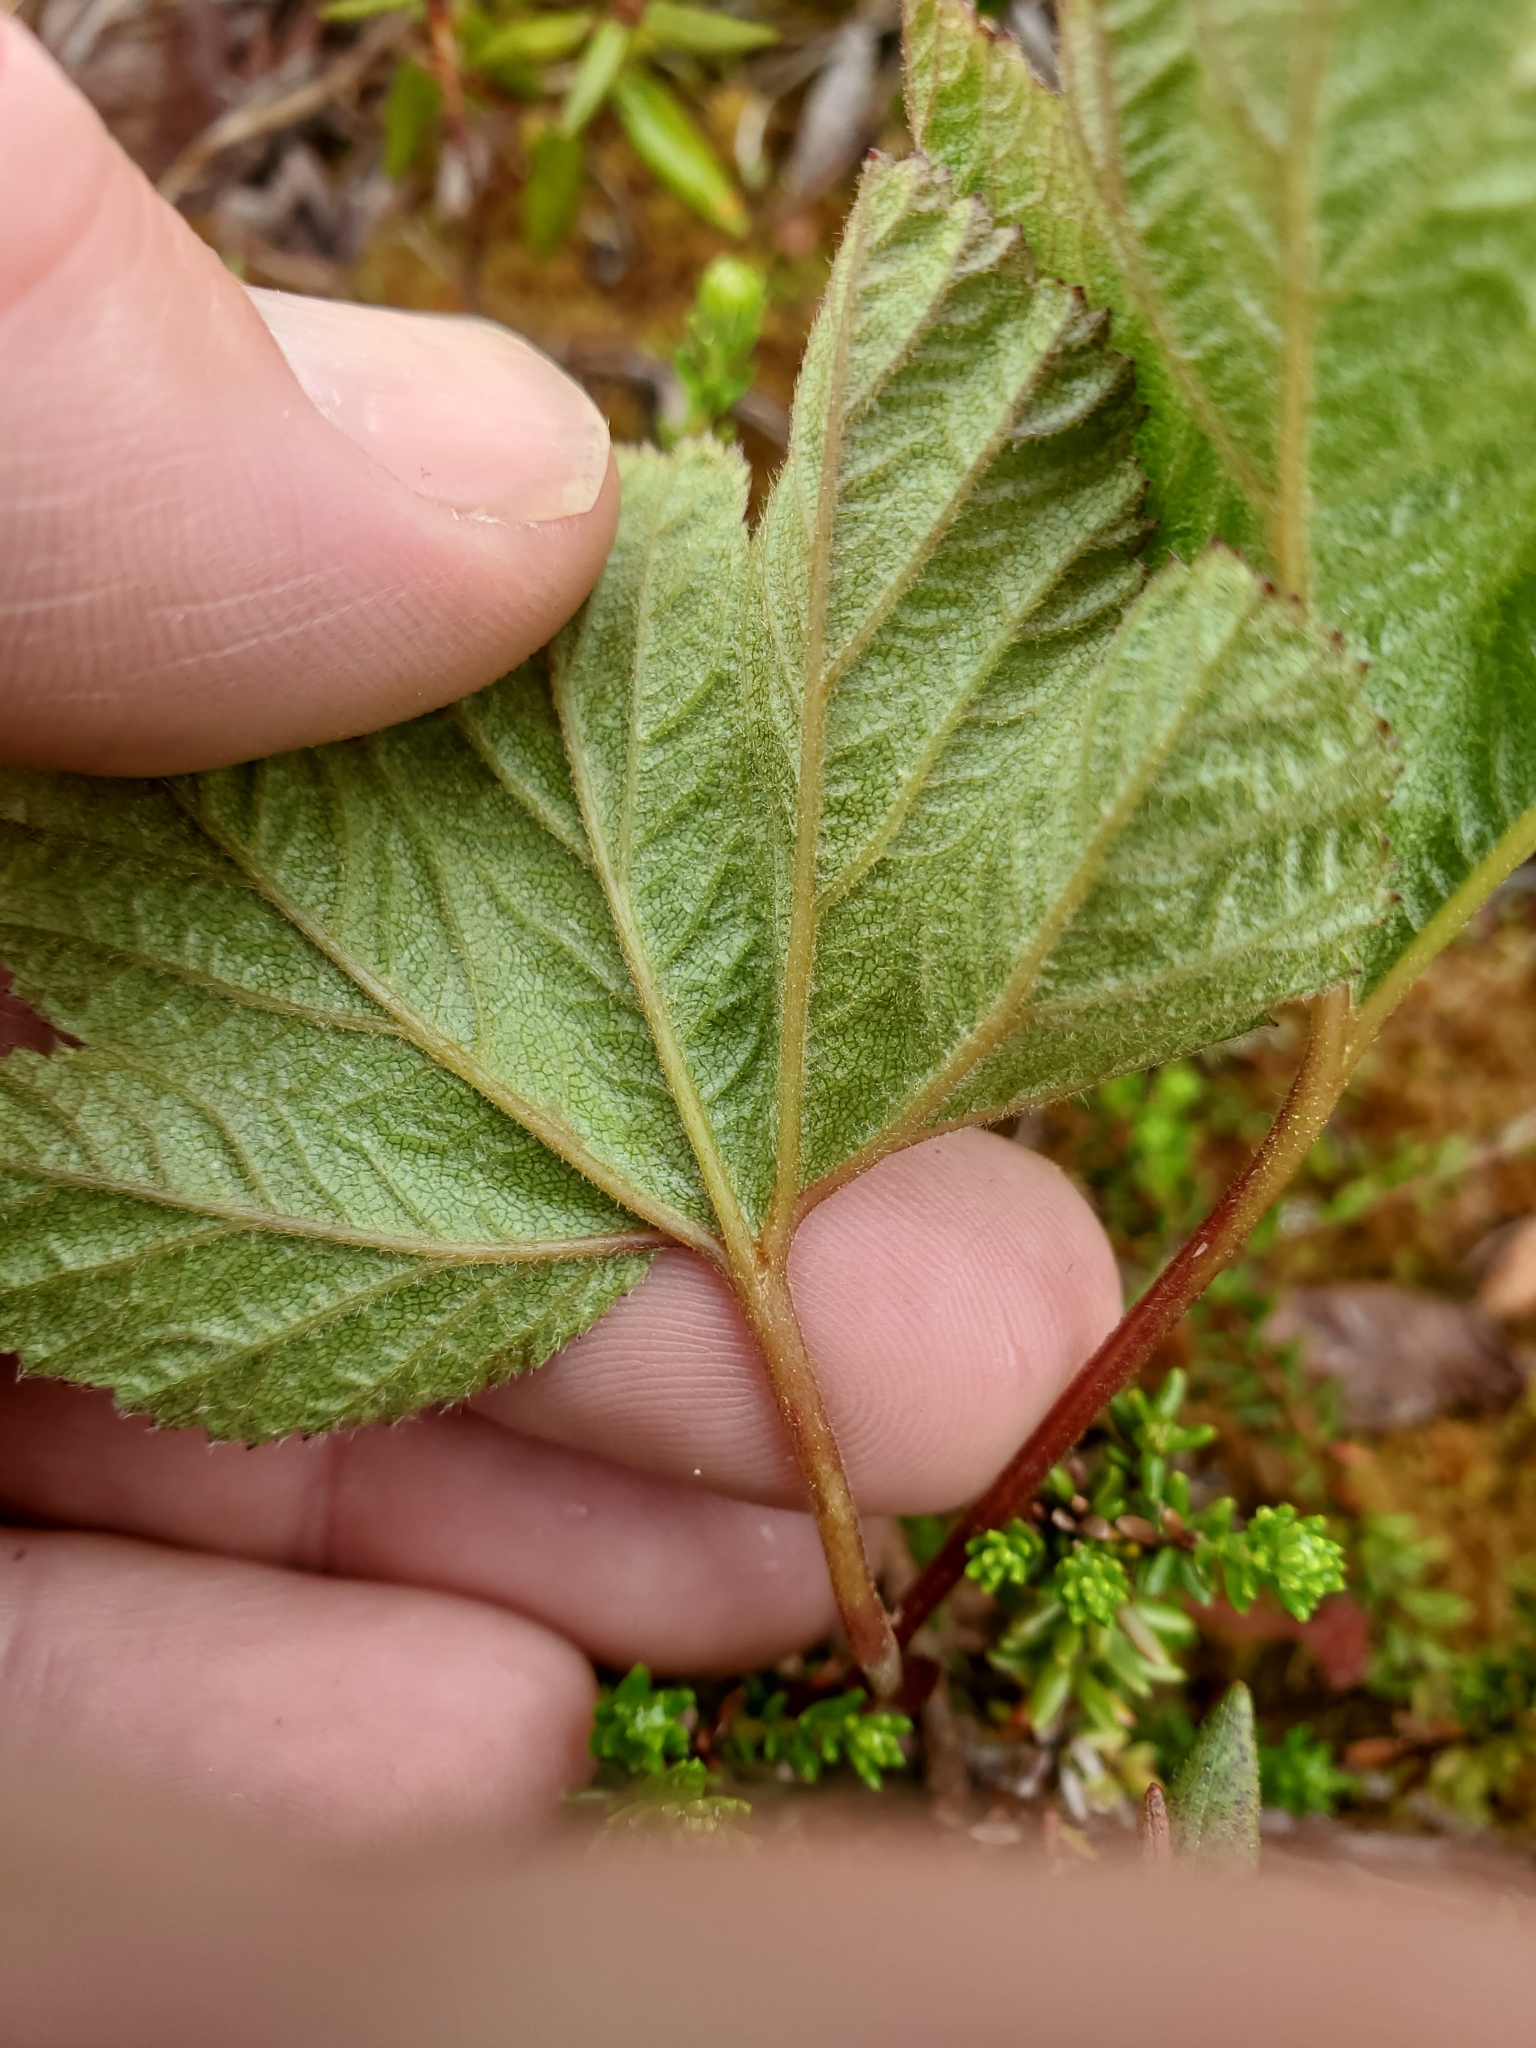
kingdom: Plantae
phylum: Tracheophyta
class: Magnoliopsida
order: Rosales
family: Rosaceae
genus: Rubus
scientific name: Rubus chamaemorus
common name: Cloudberry
